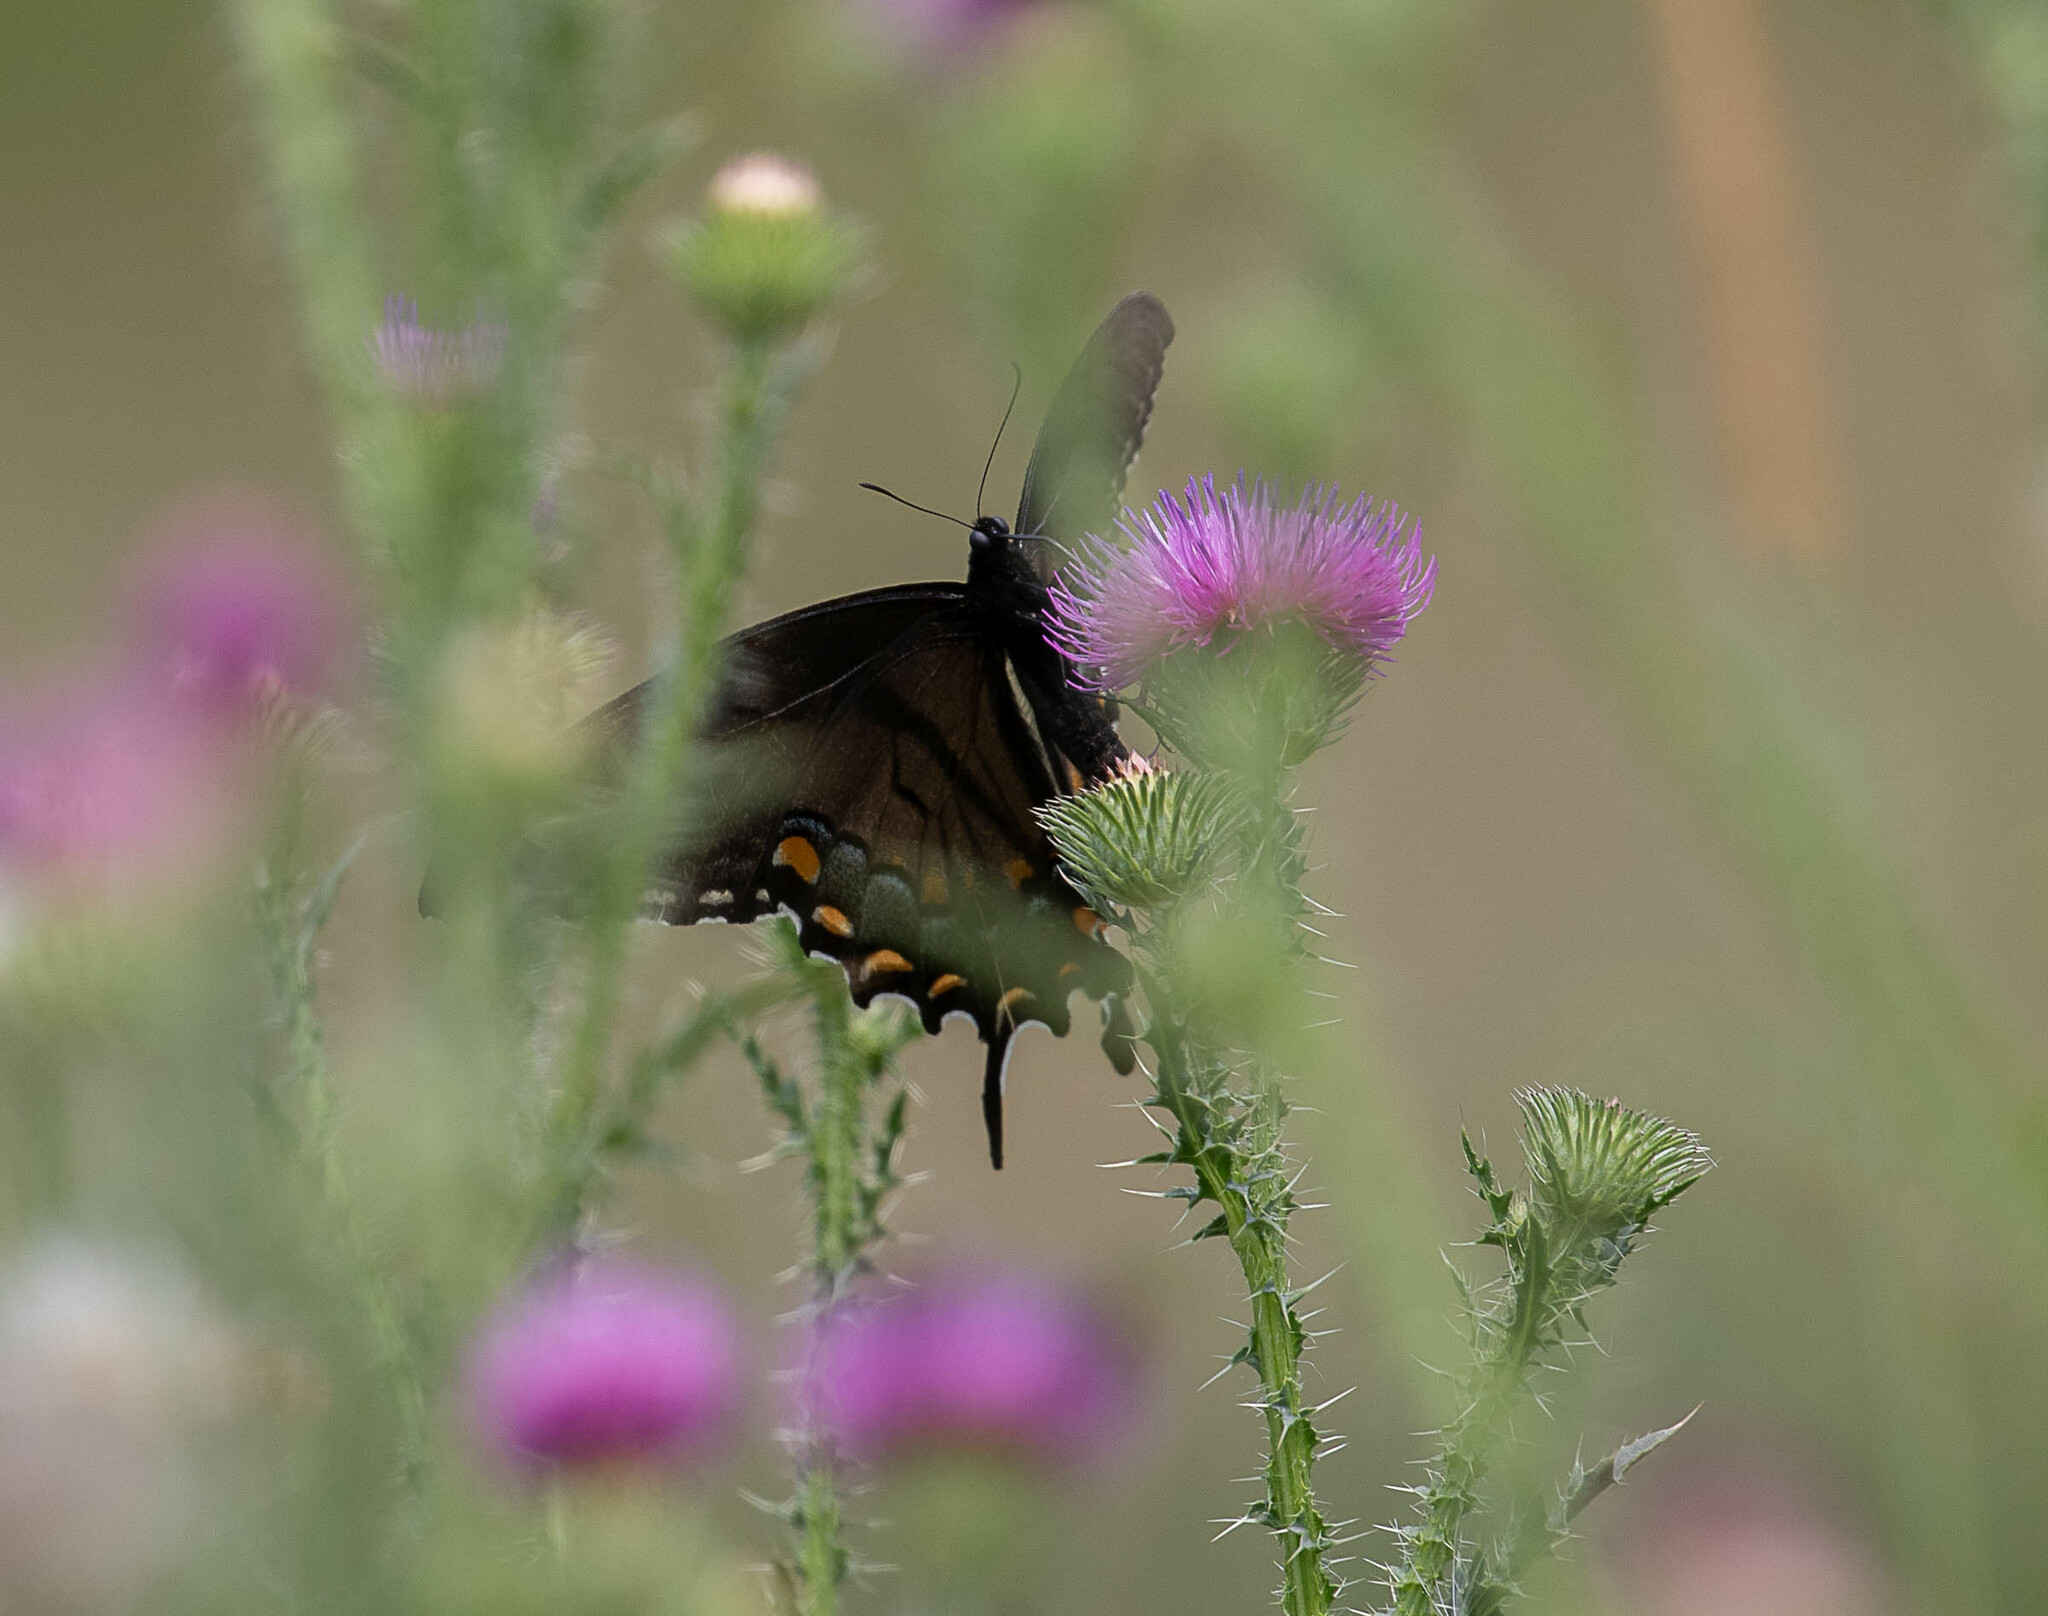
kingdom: Animalia
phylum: Arthropoda
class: Insecta
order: Lepidoptera
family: Papilionidae
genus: Papilio
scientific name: Papilio glaucus
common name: Tiger swallowtail
